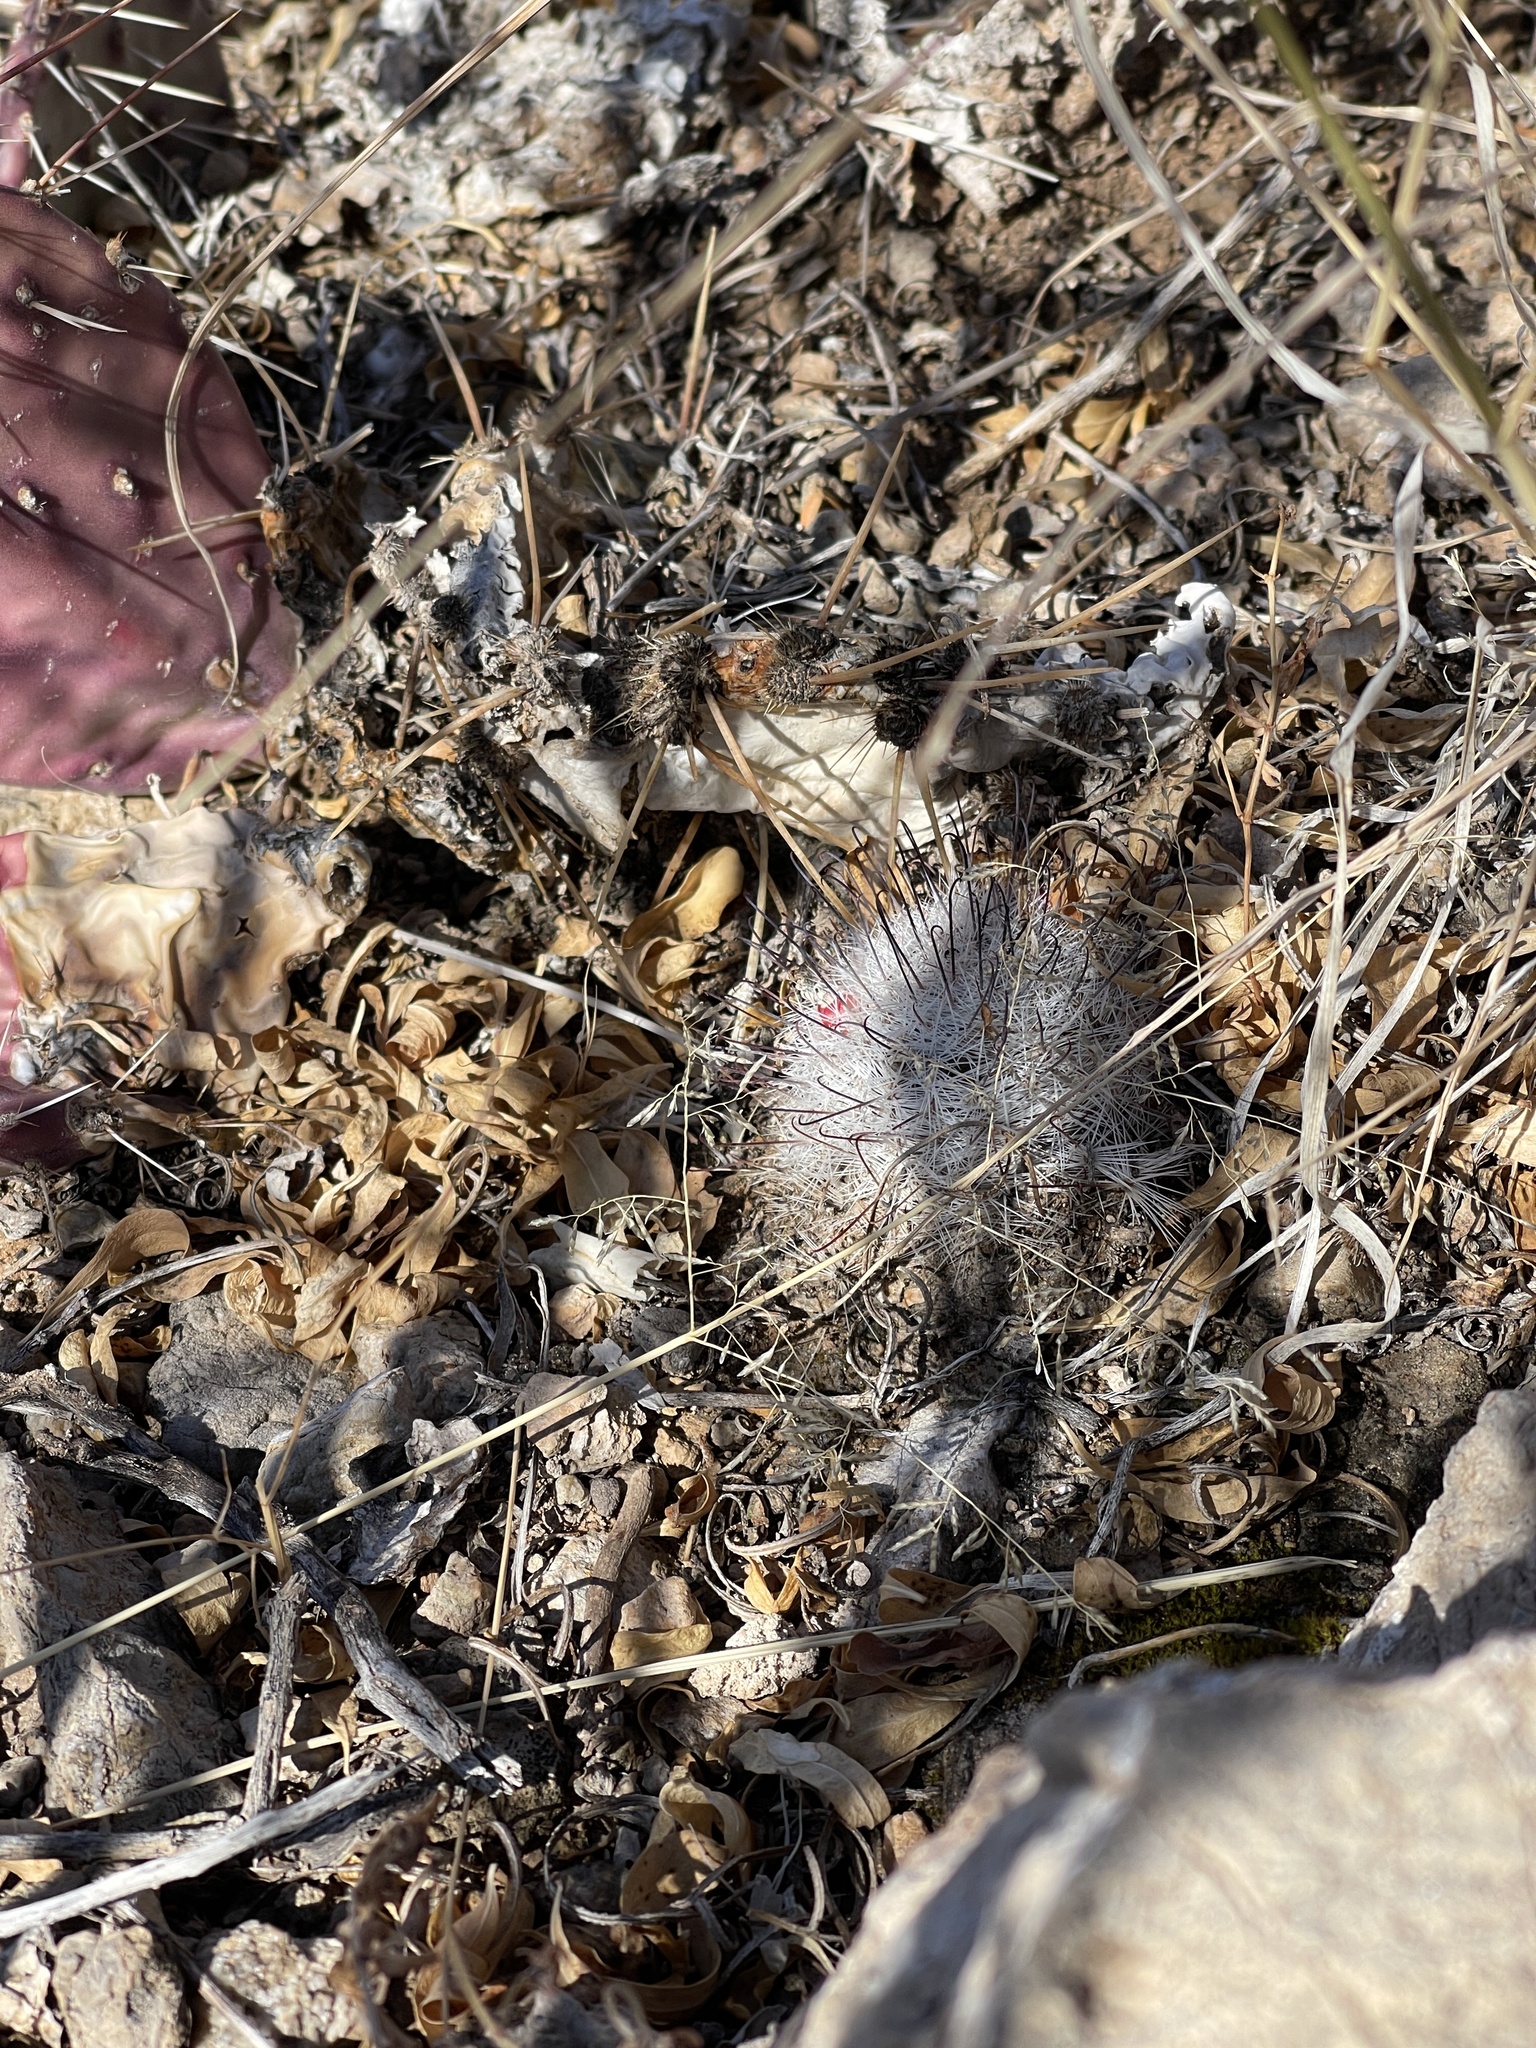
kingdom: Plantae
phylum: Tracheophyta
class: Magnoliopsida
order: Caryophyllales
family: Cactaceae
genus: Cochemiea
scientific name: Cochemiea grahamii
